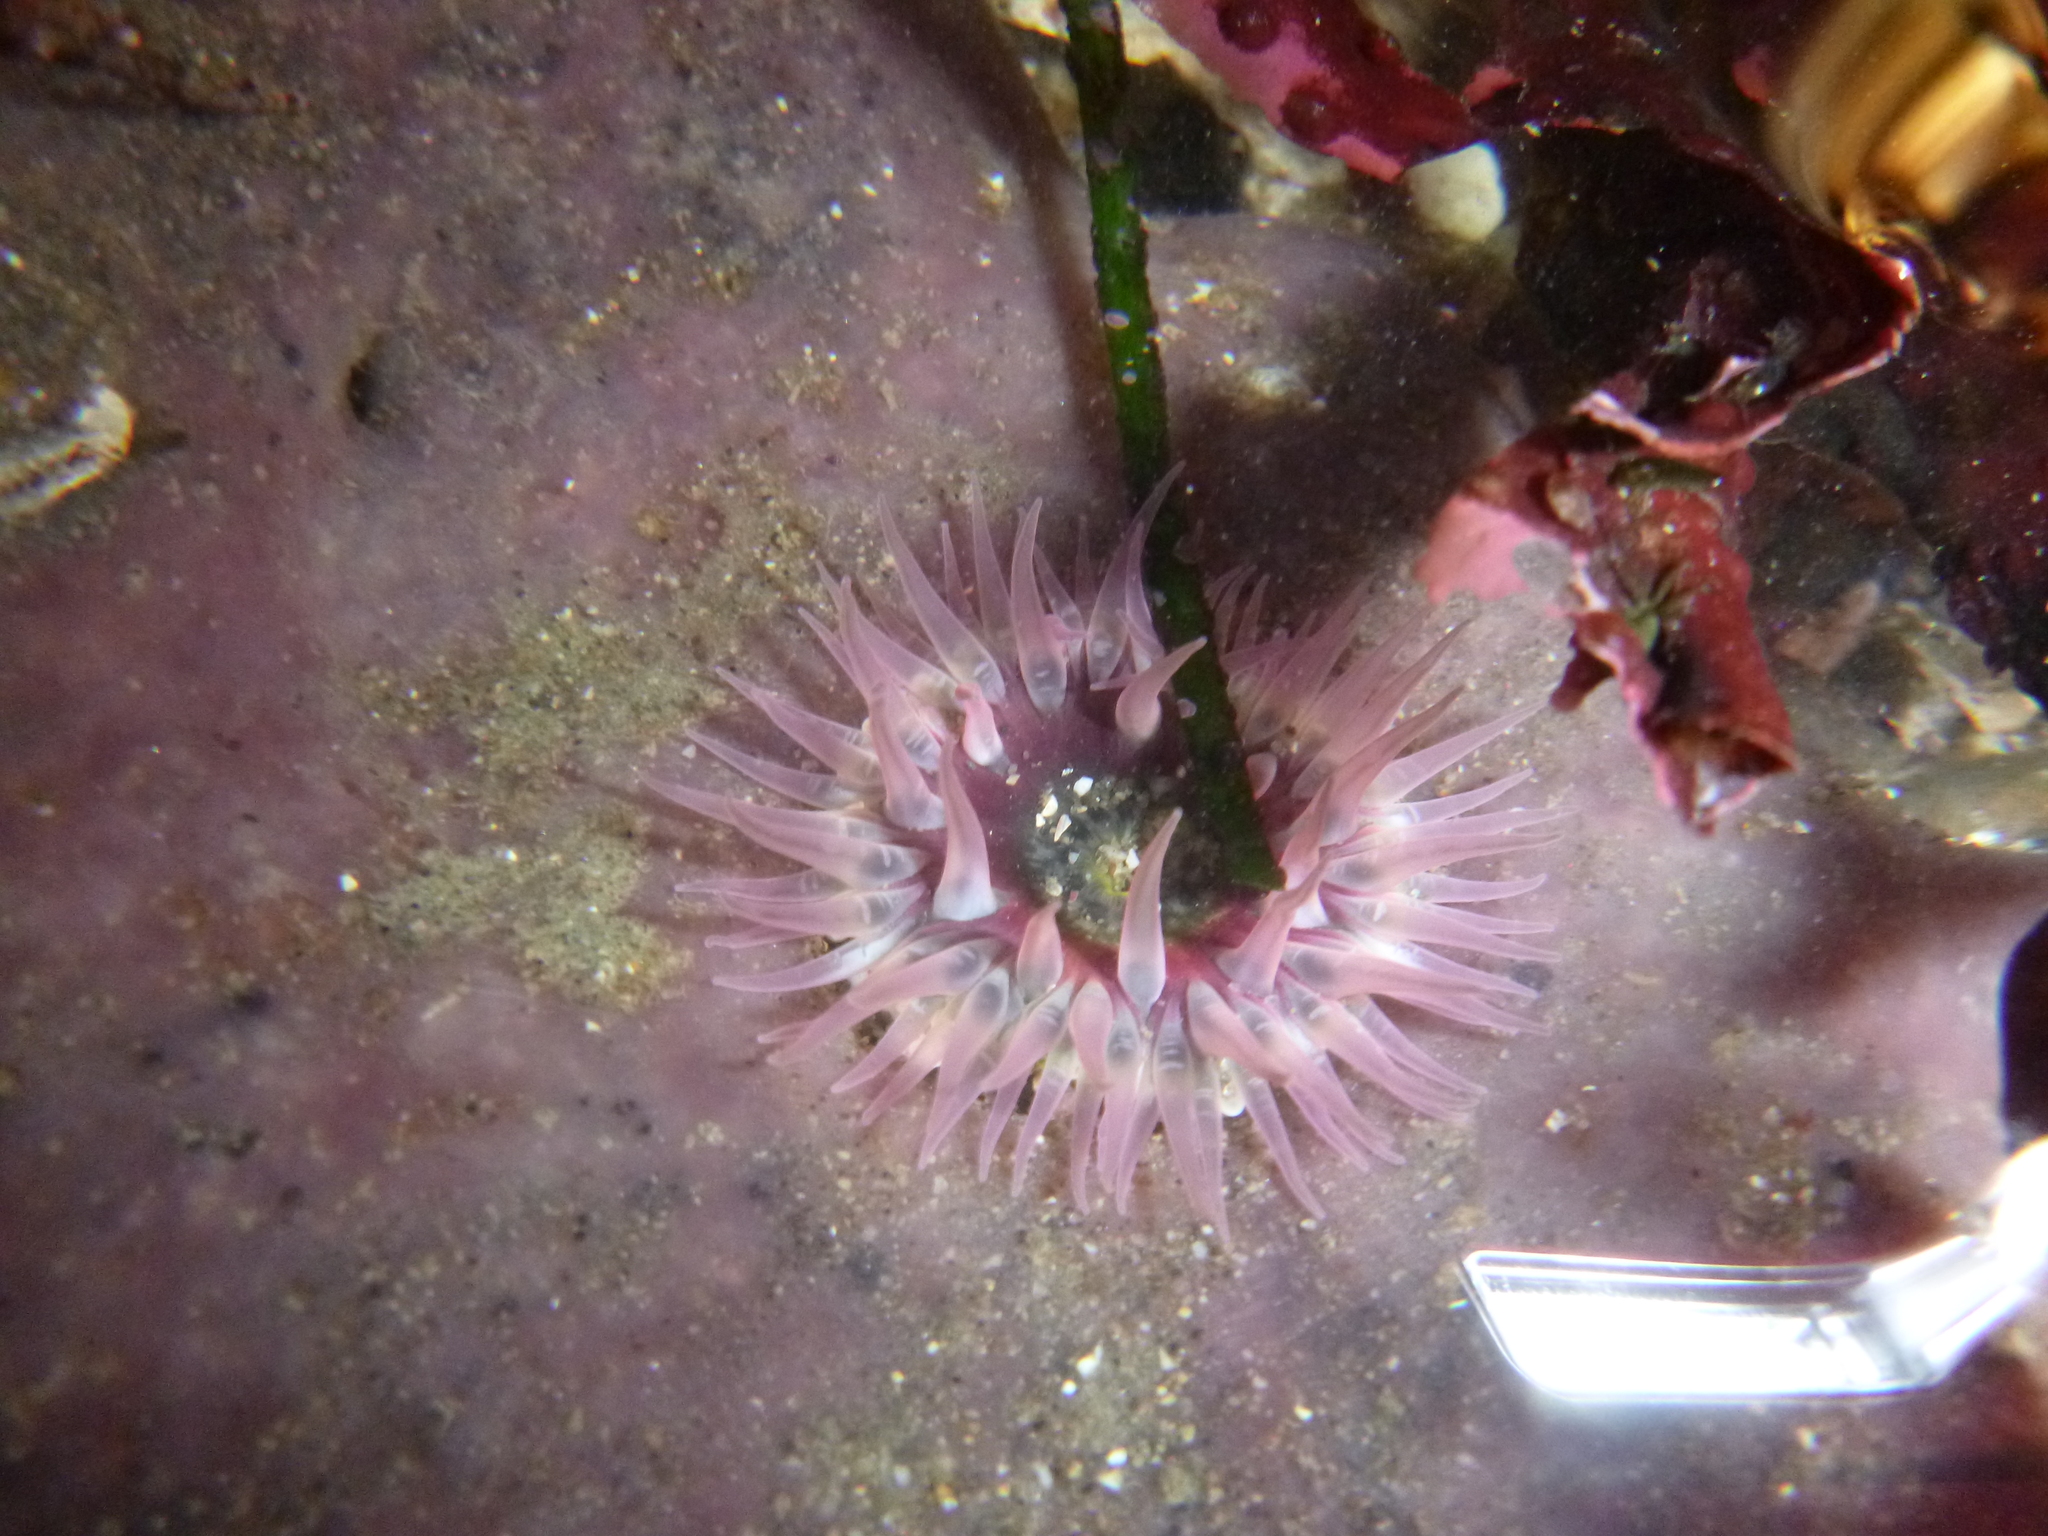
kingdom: Animalia
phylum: Cnidaria
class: Anthozoa
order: Actiniaria
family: Actiniidae
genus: Anthopleura
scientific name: Anthopleura artemisia
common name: Buried sea anemone
